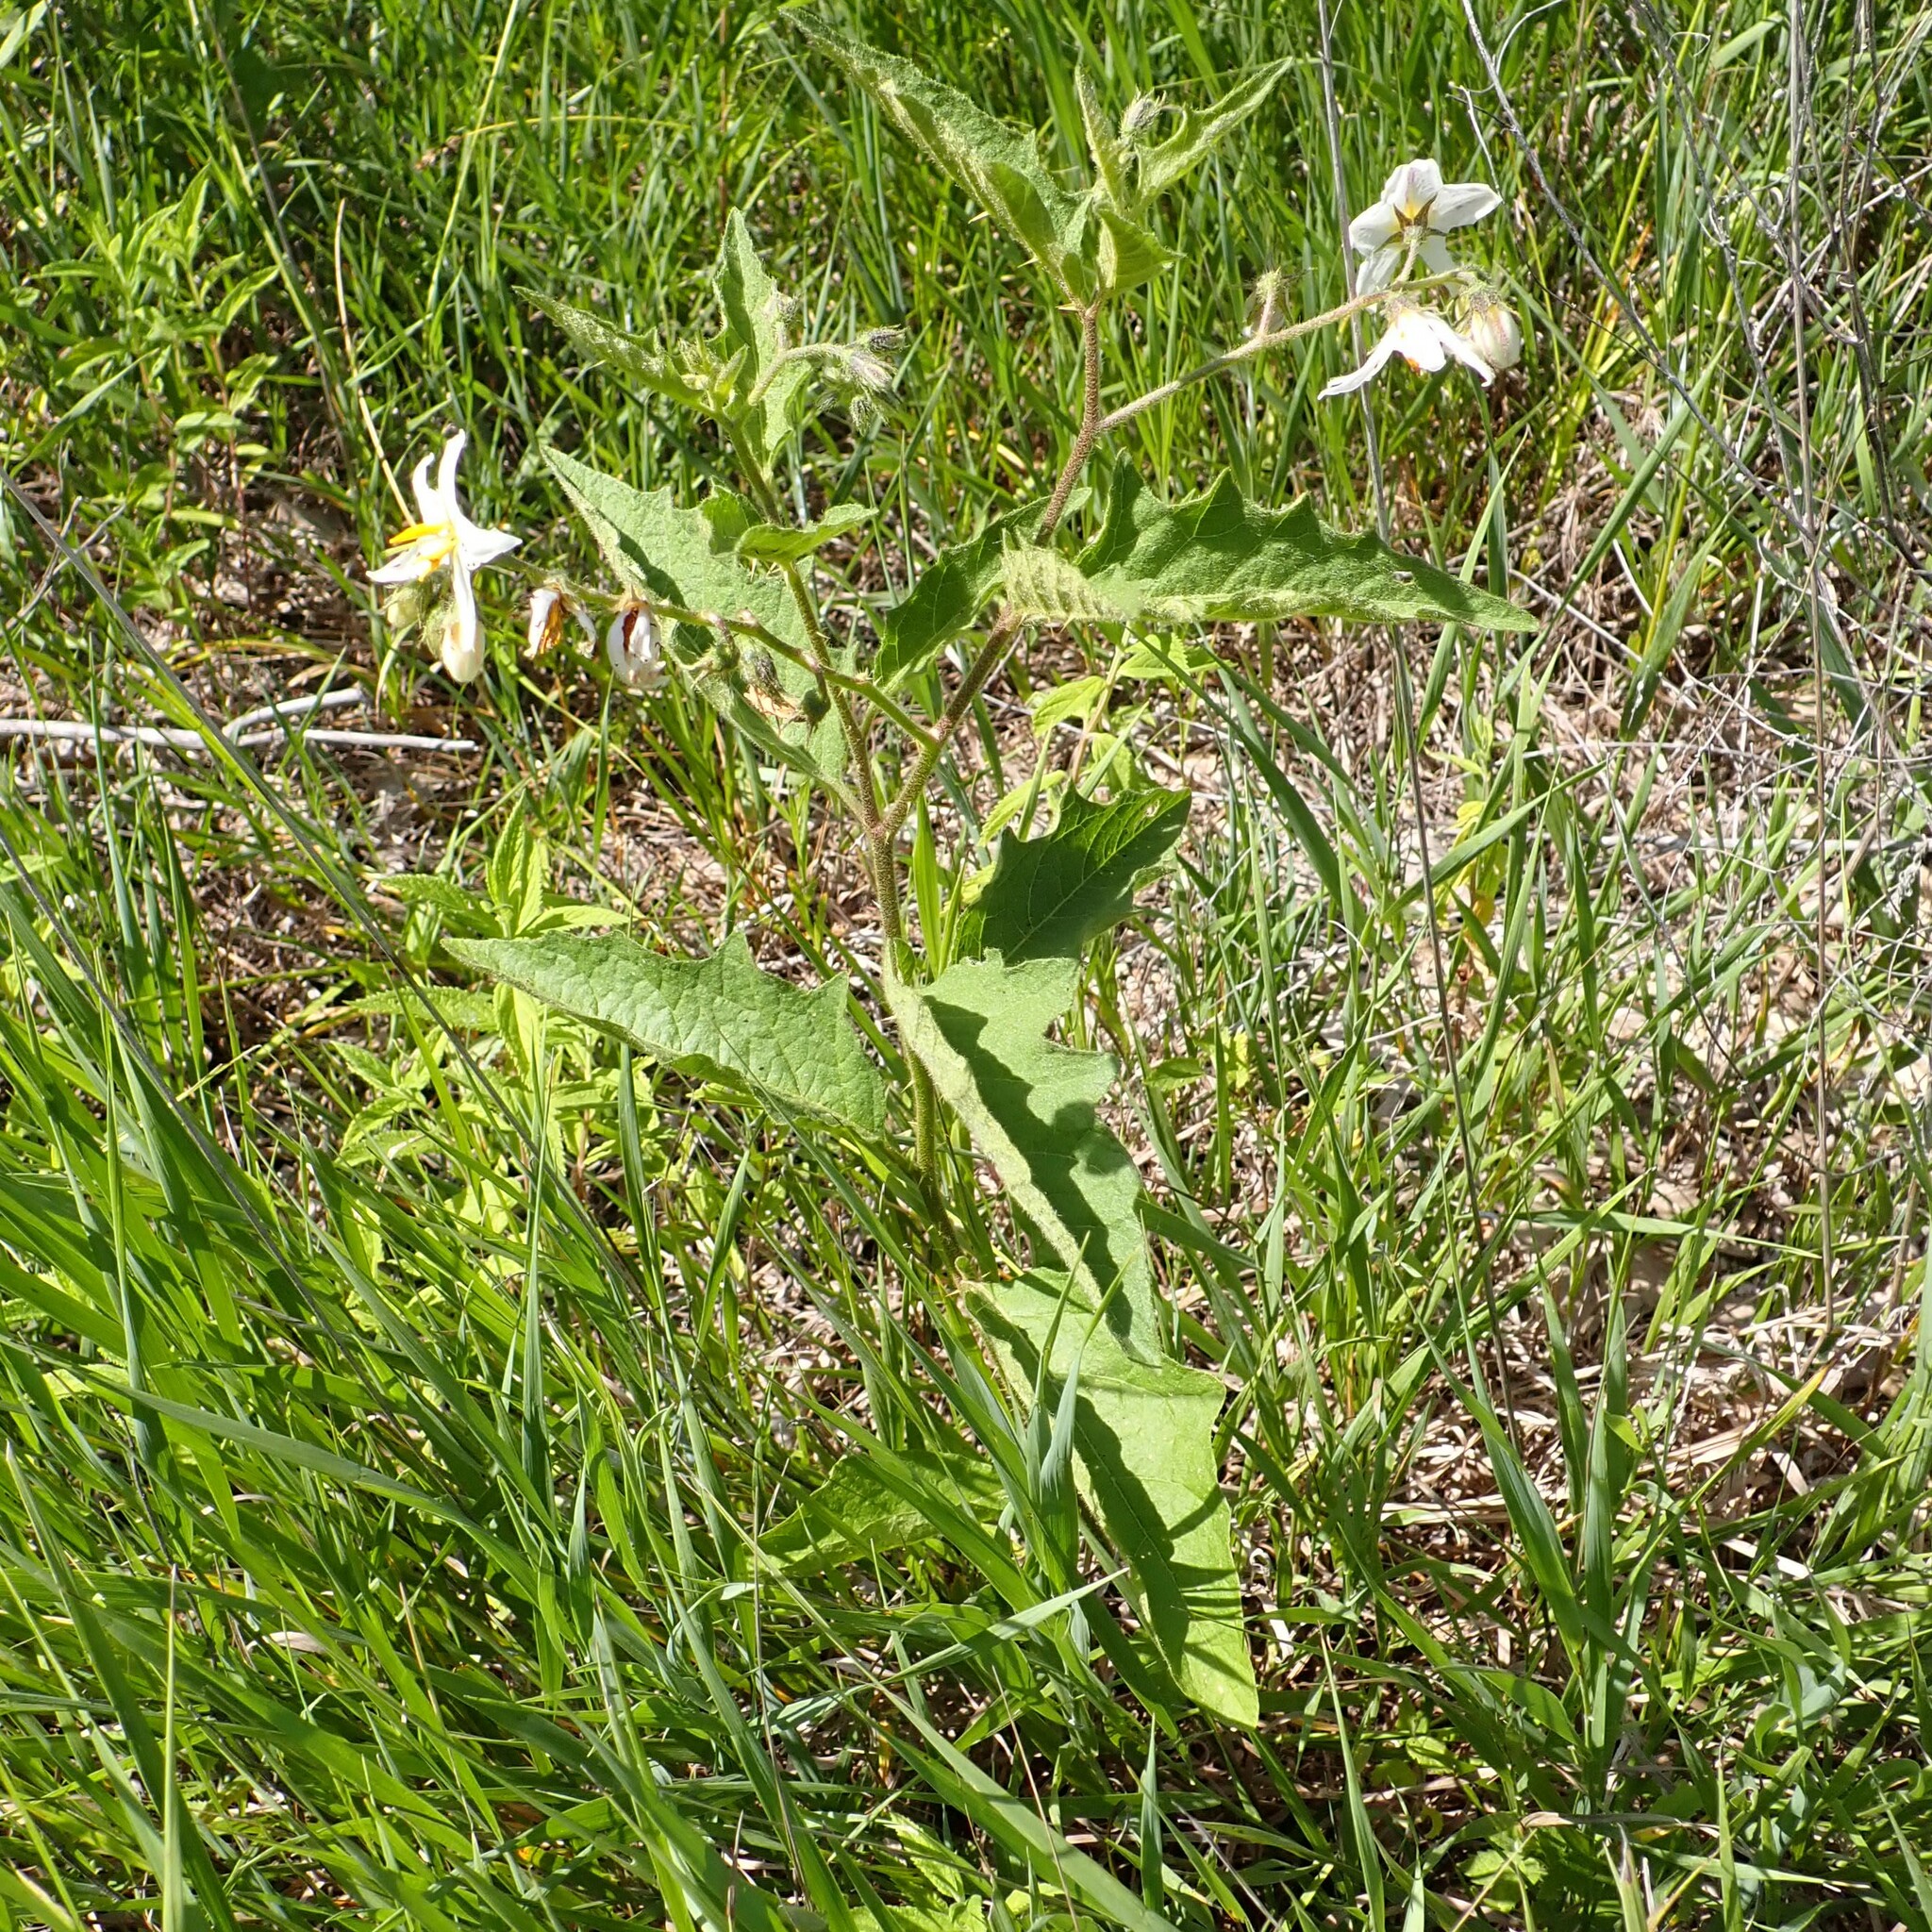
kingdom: Plantae
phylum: Tracheophyta
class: Magnoliopsida
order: Solanales
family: Solanaceae
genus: Solanum
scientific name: Solanum carolinense
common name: Horse-nettle
